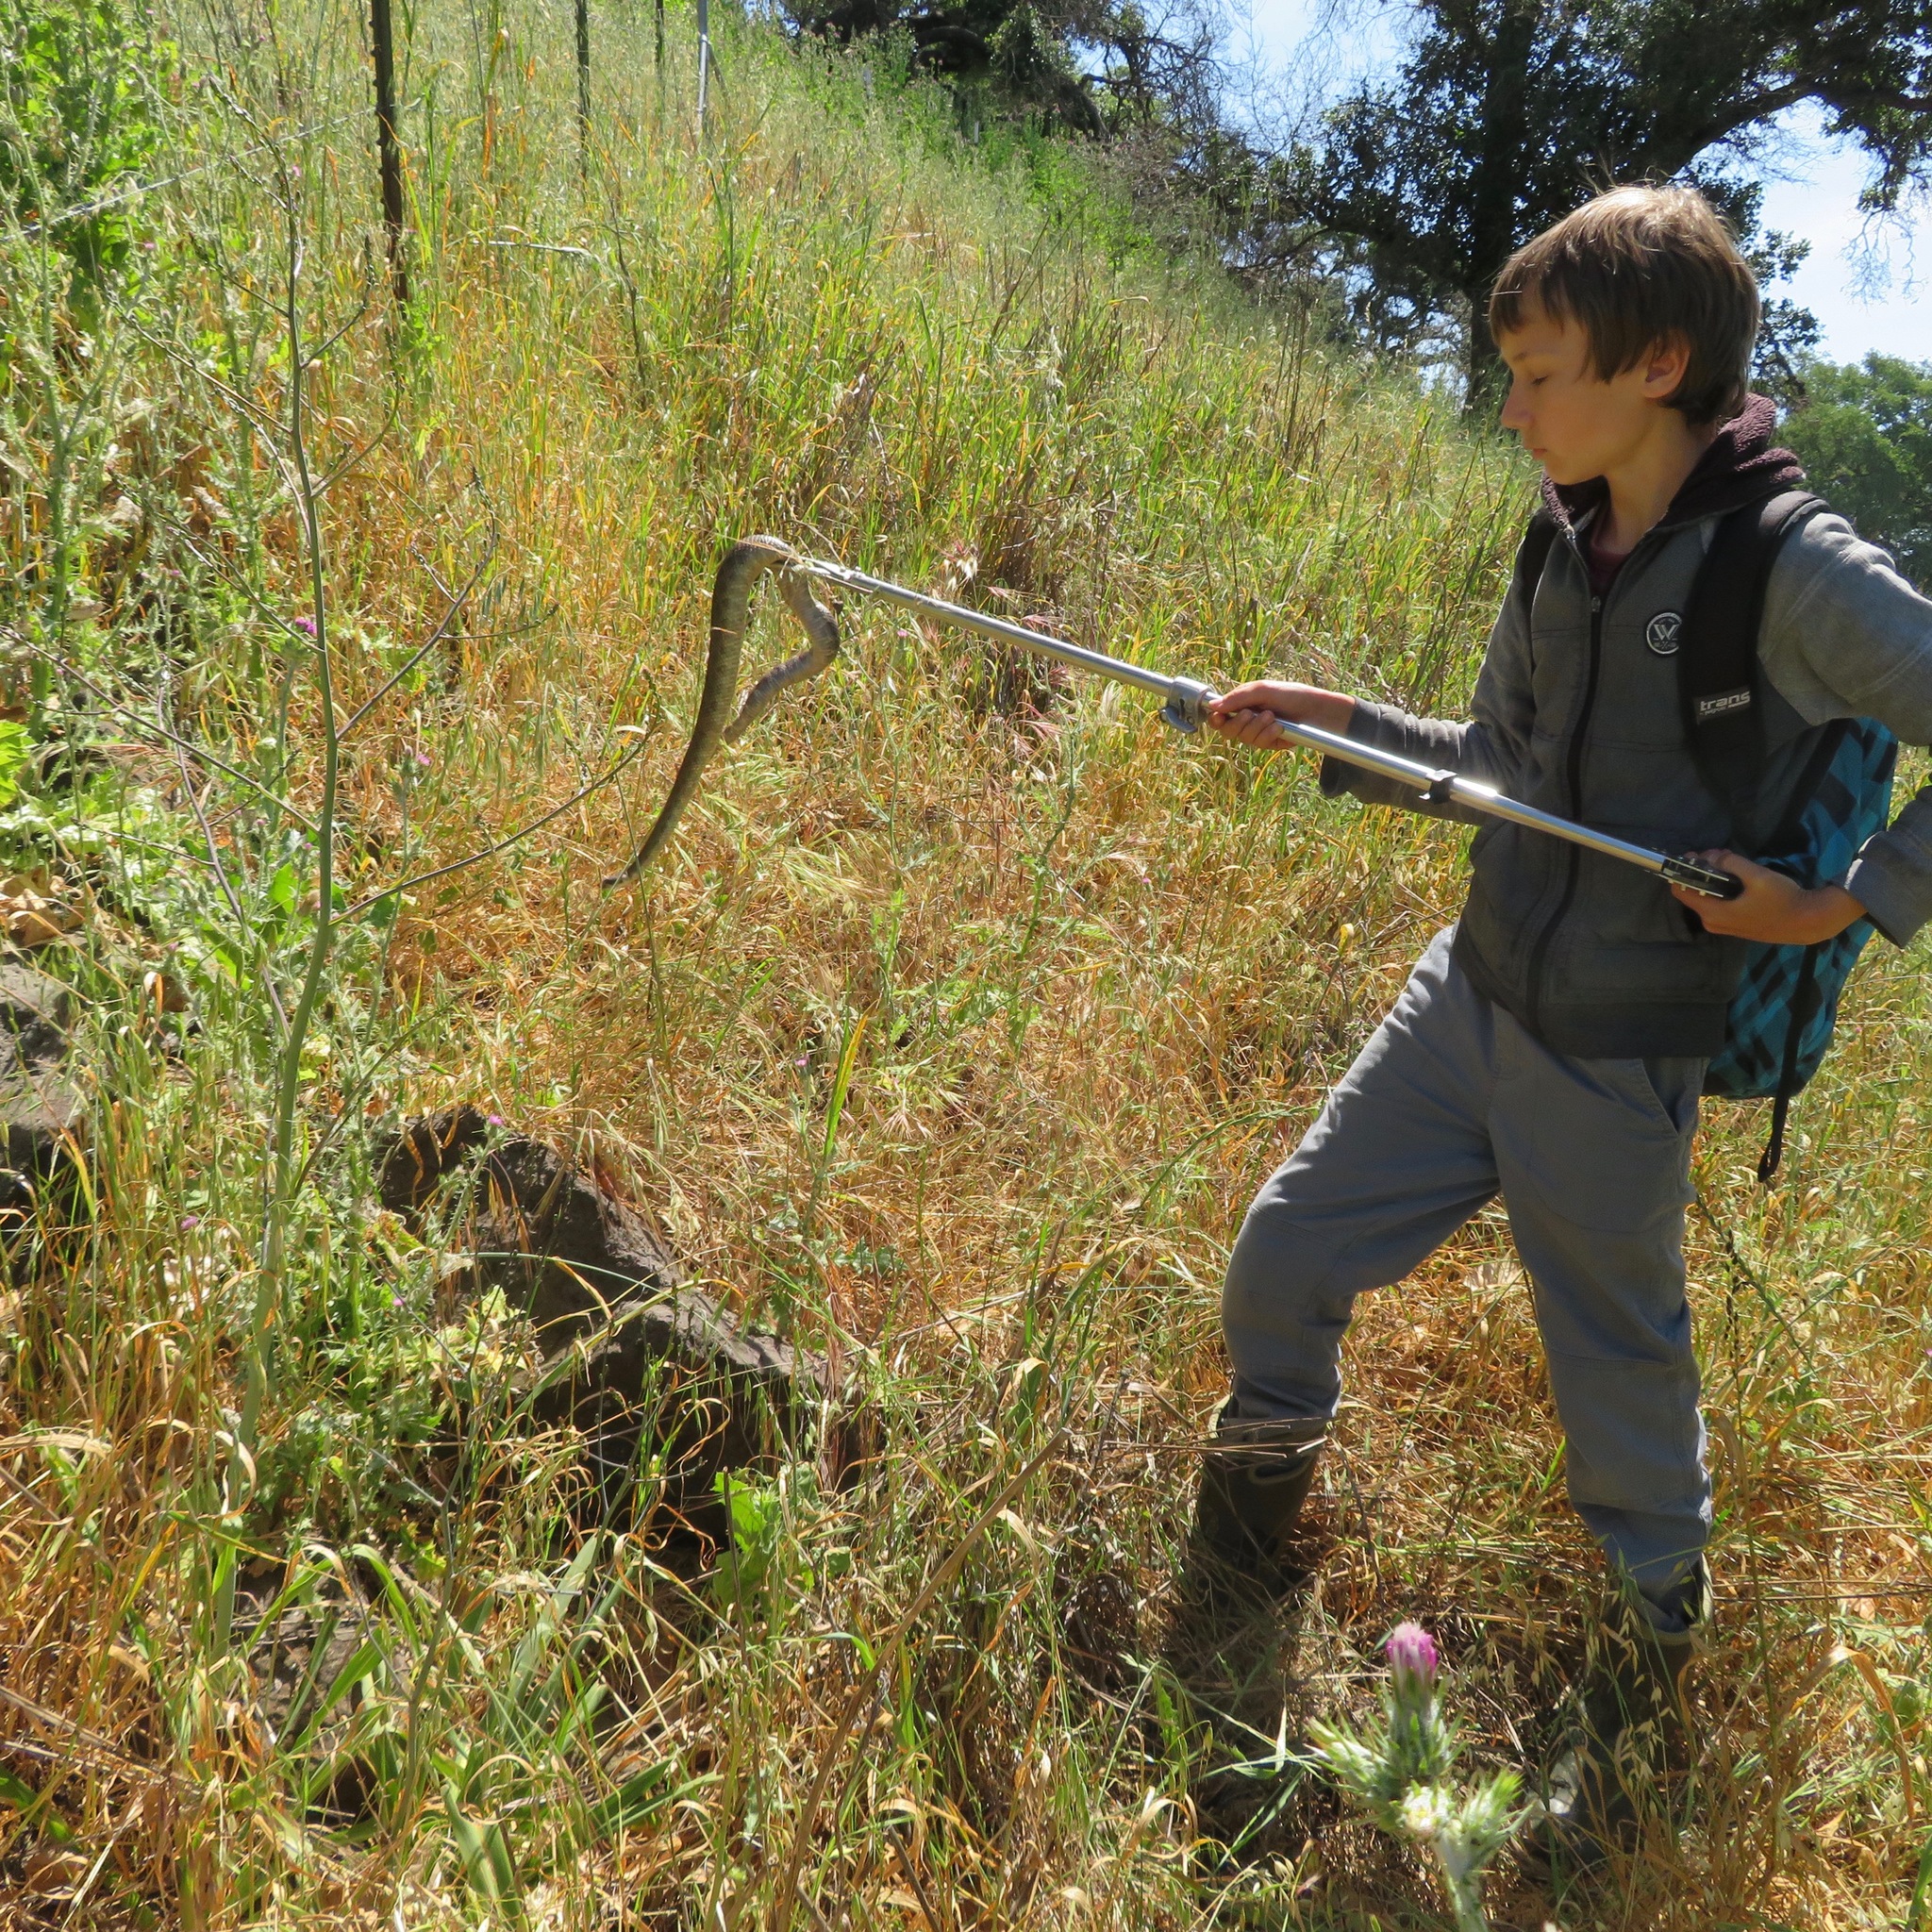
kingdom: Animalia
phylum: Chordata
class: Squamata
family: Viperidae
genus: Crotalus
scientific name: Crotalus oreganus
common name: Abyssus
